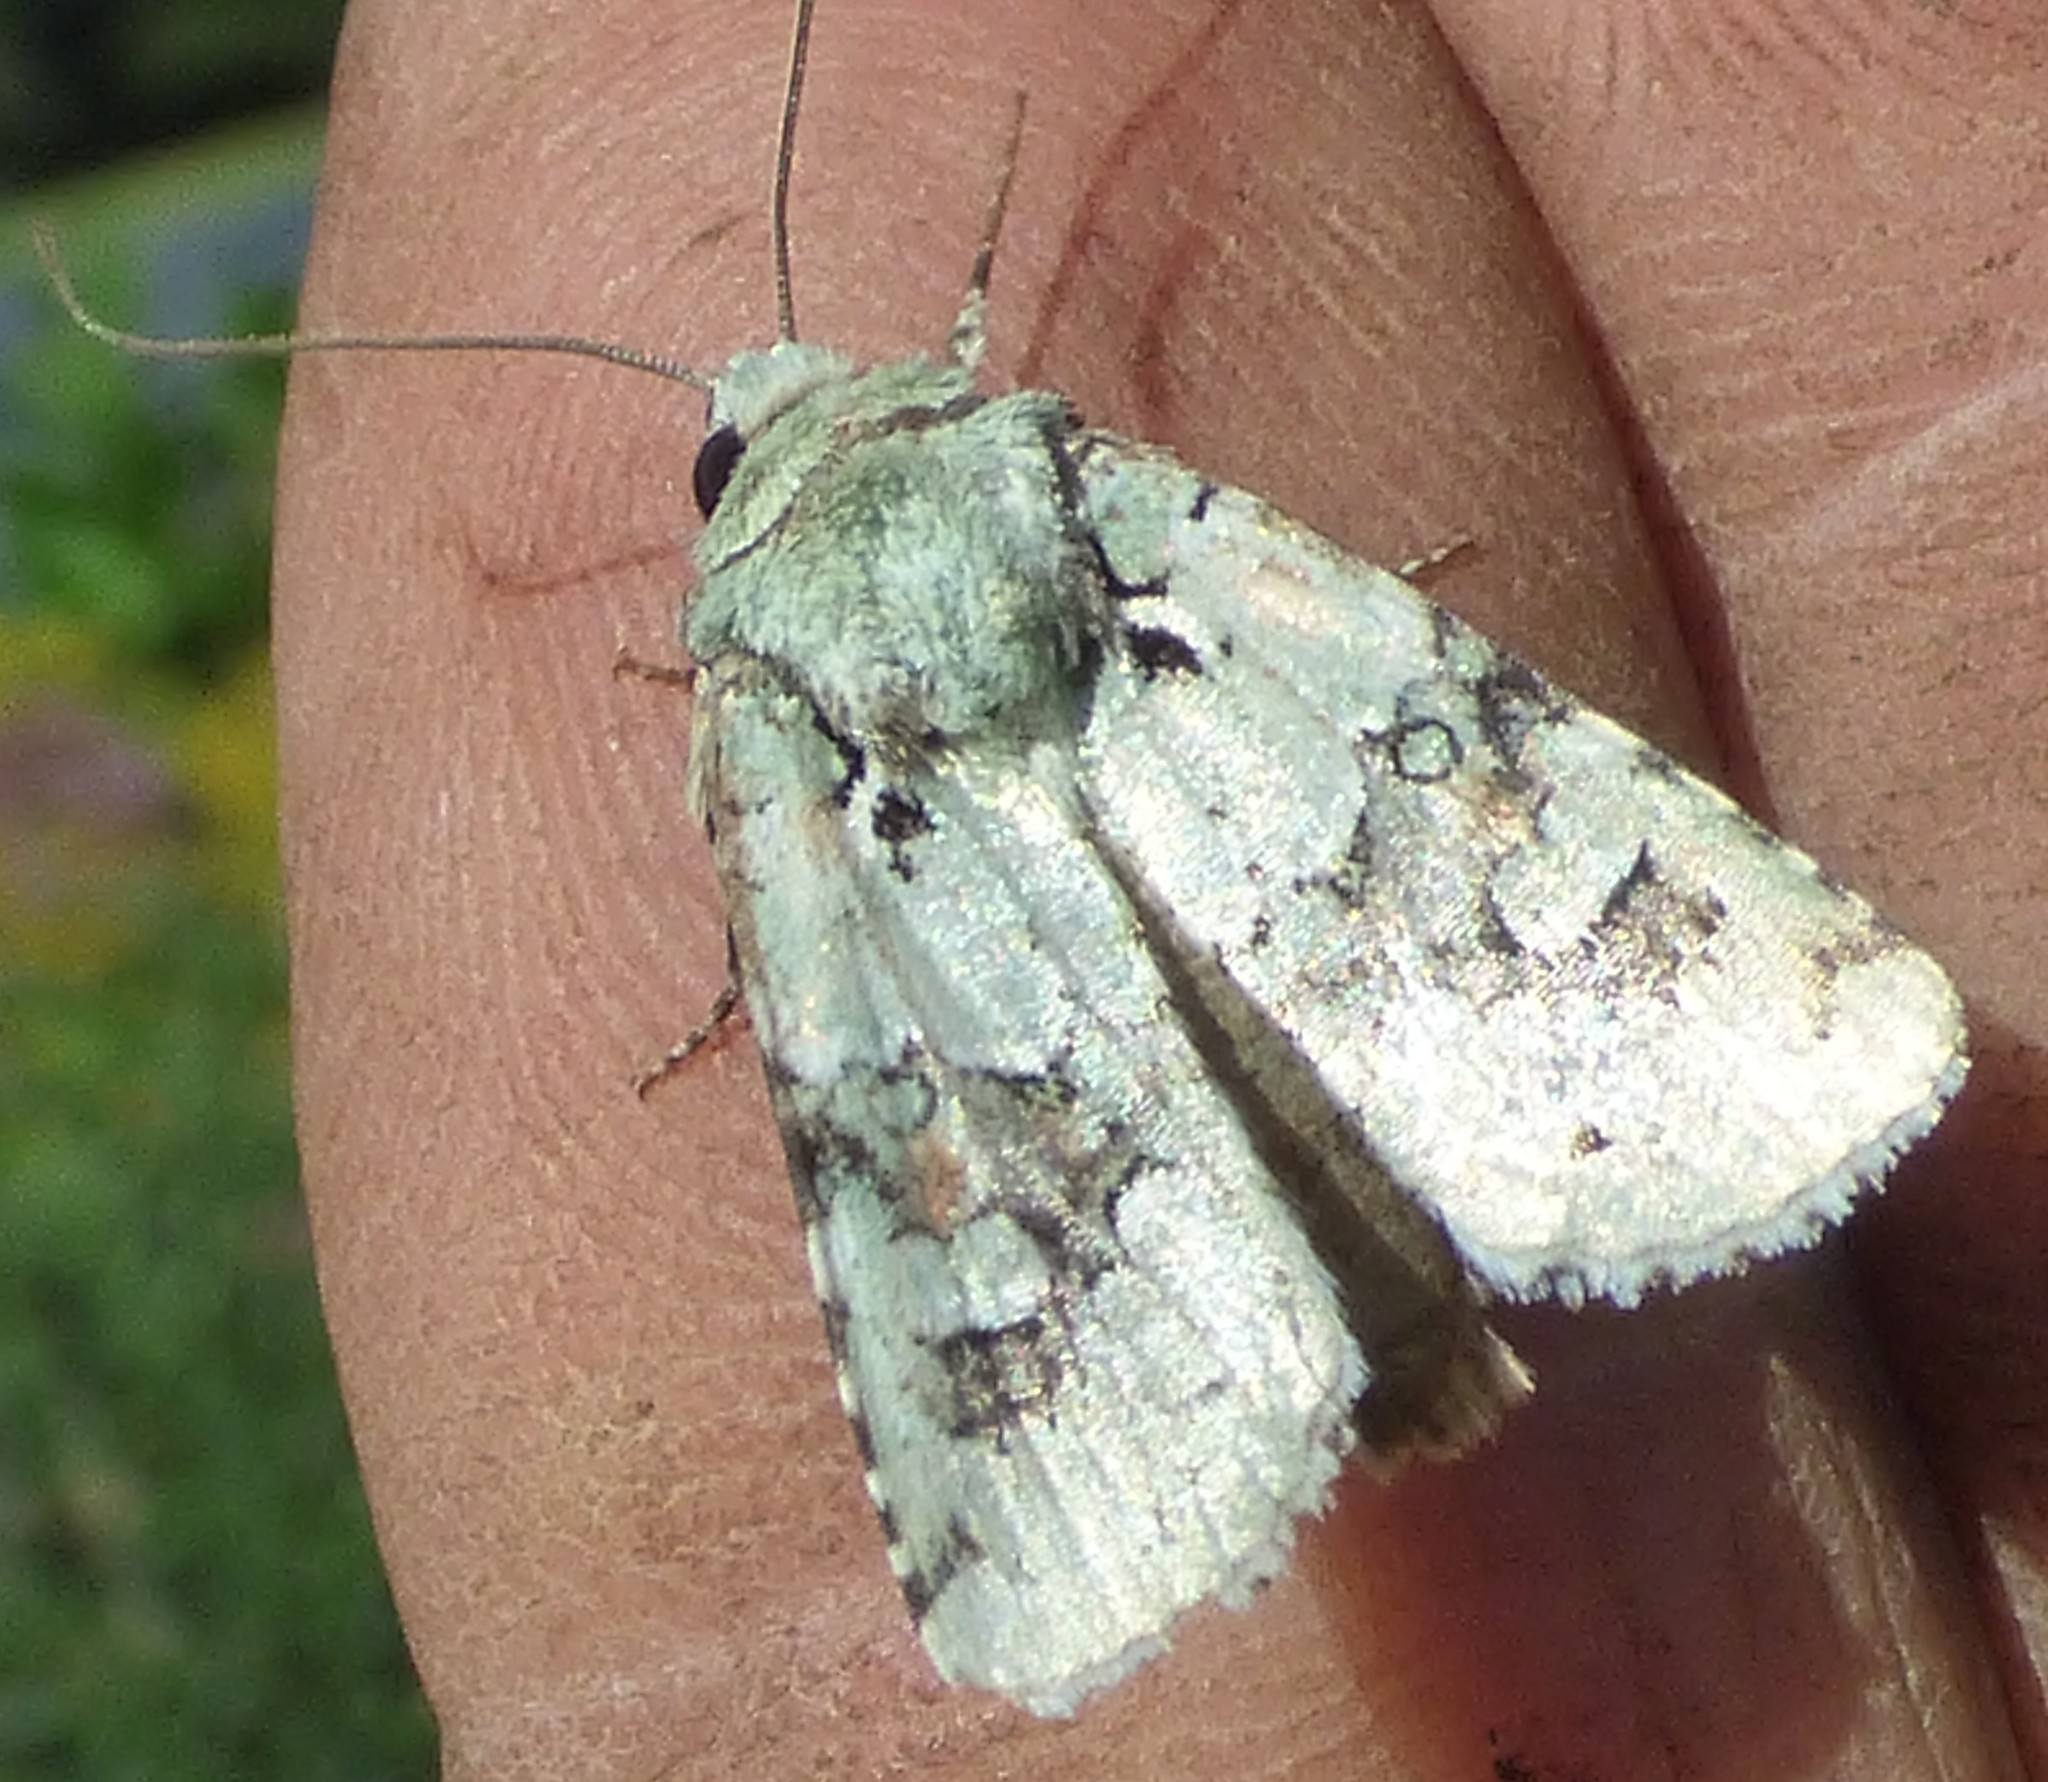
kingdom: Animalia
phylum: Arthropoda
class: Insecta
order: Lepidoptera
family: Noctuidae
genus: Lacinipolia
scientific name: Lacinipolia laudabilis
